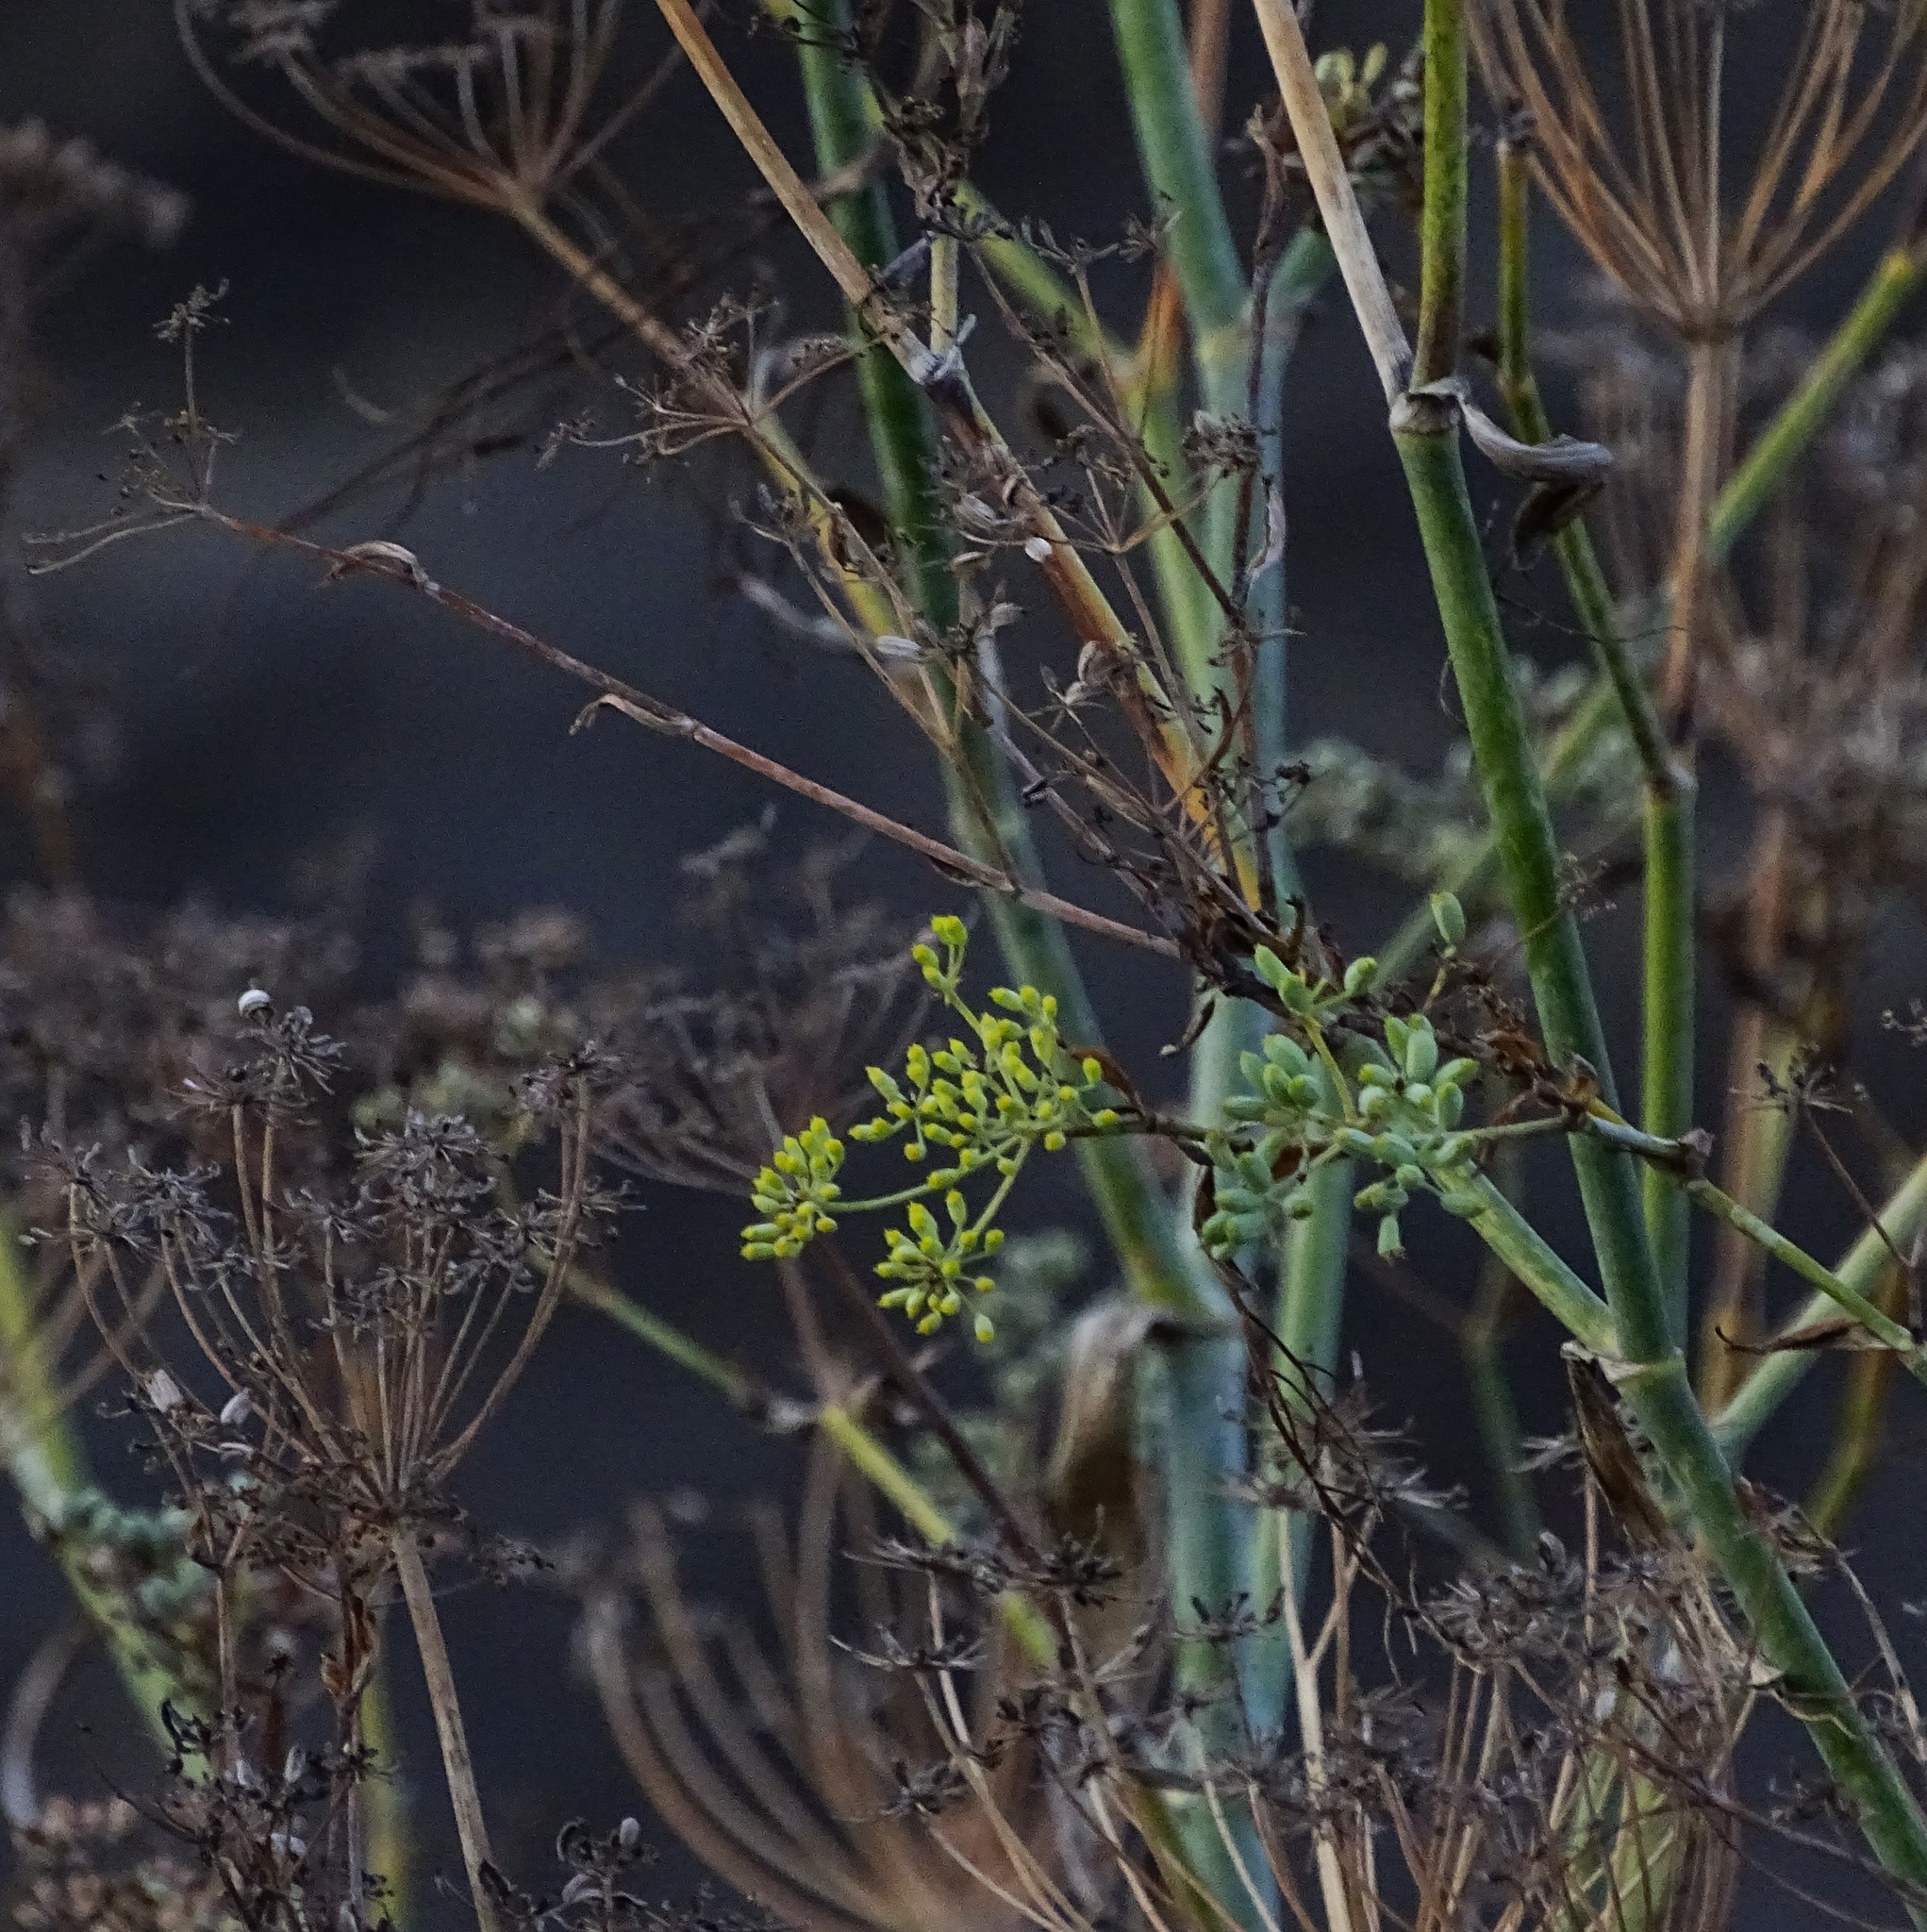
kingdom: Plantae
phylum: Tracheophyta
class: Magnoliopsida
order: Apiales
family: Apiaceae
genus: Foeniculum
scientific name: Foeniculum vulgare
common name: Fennel
